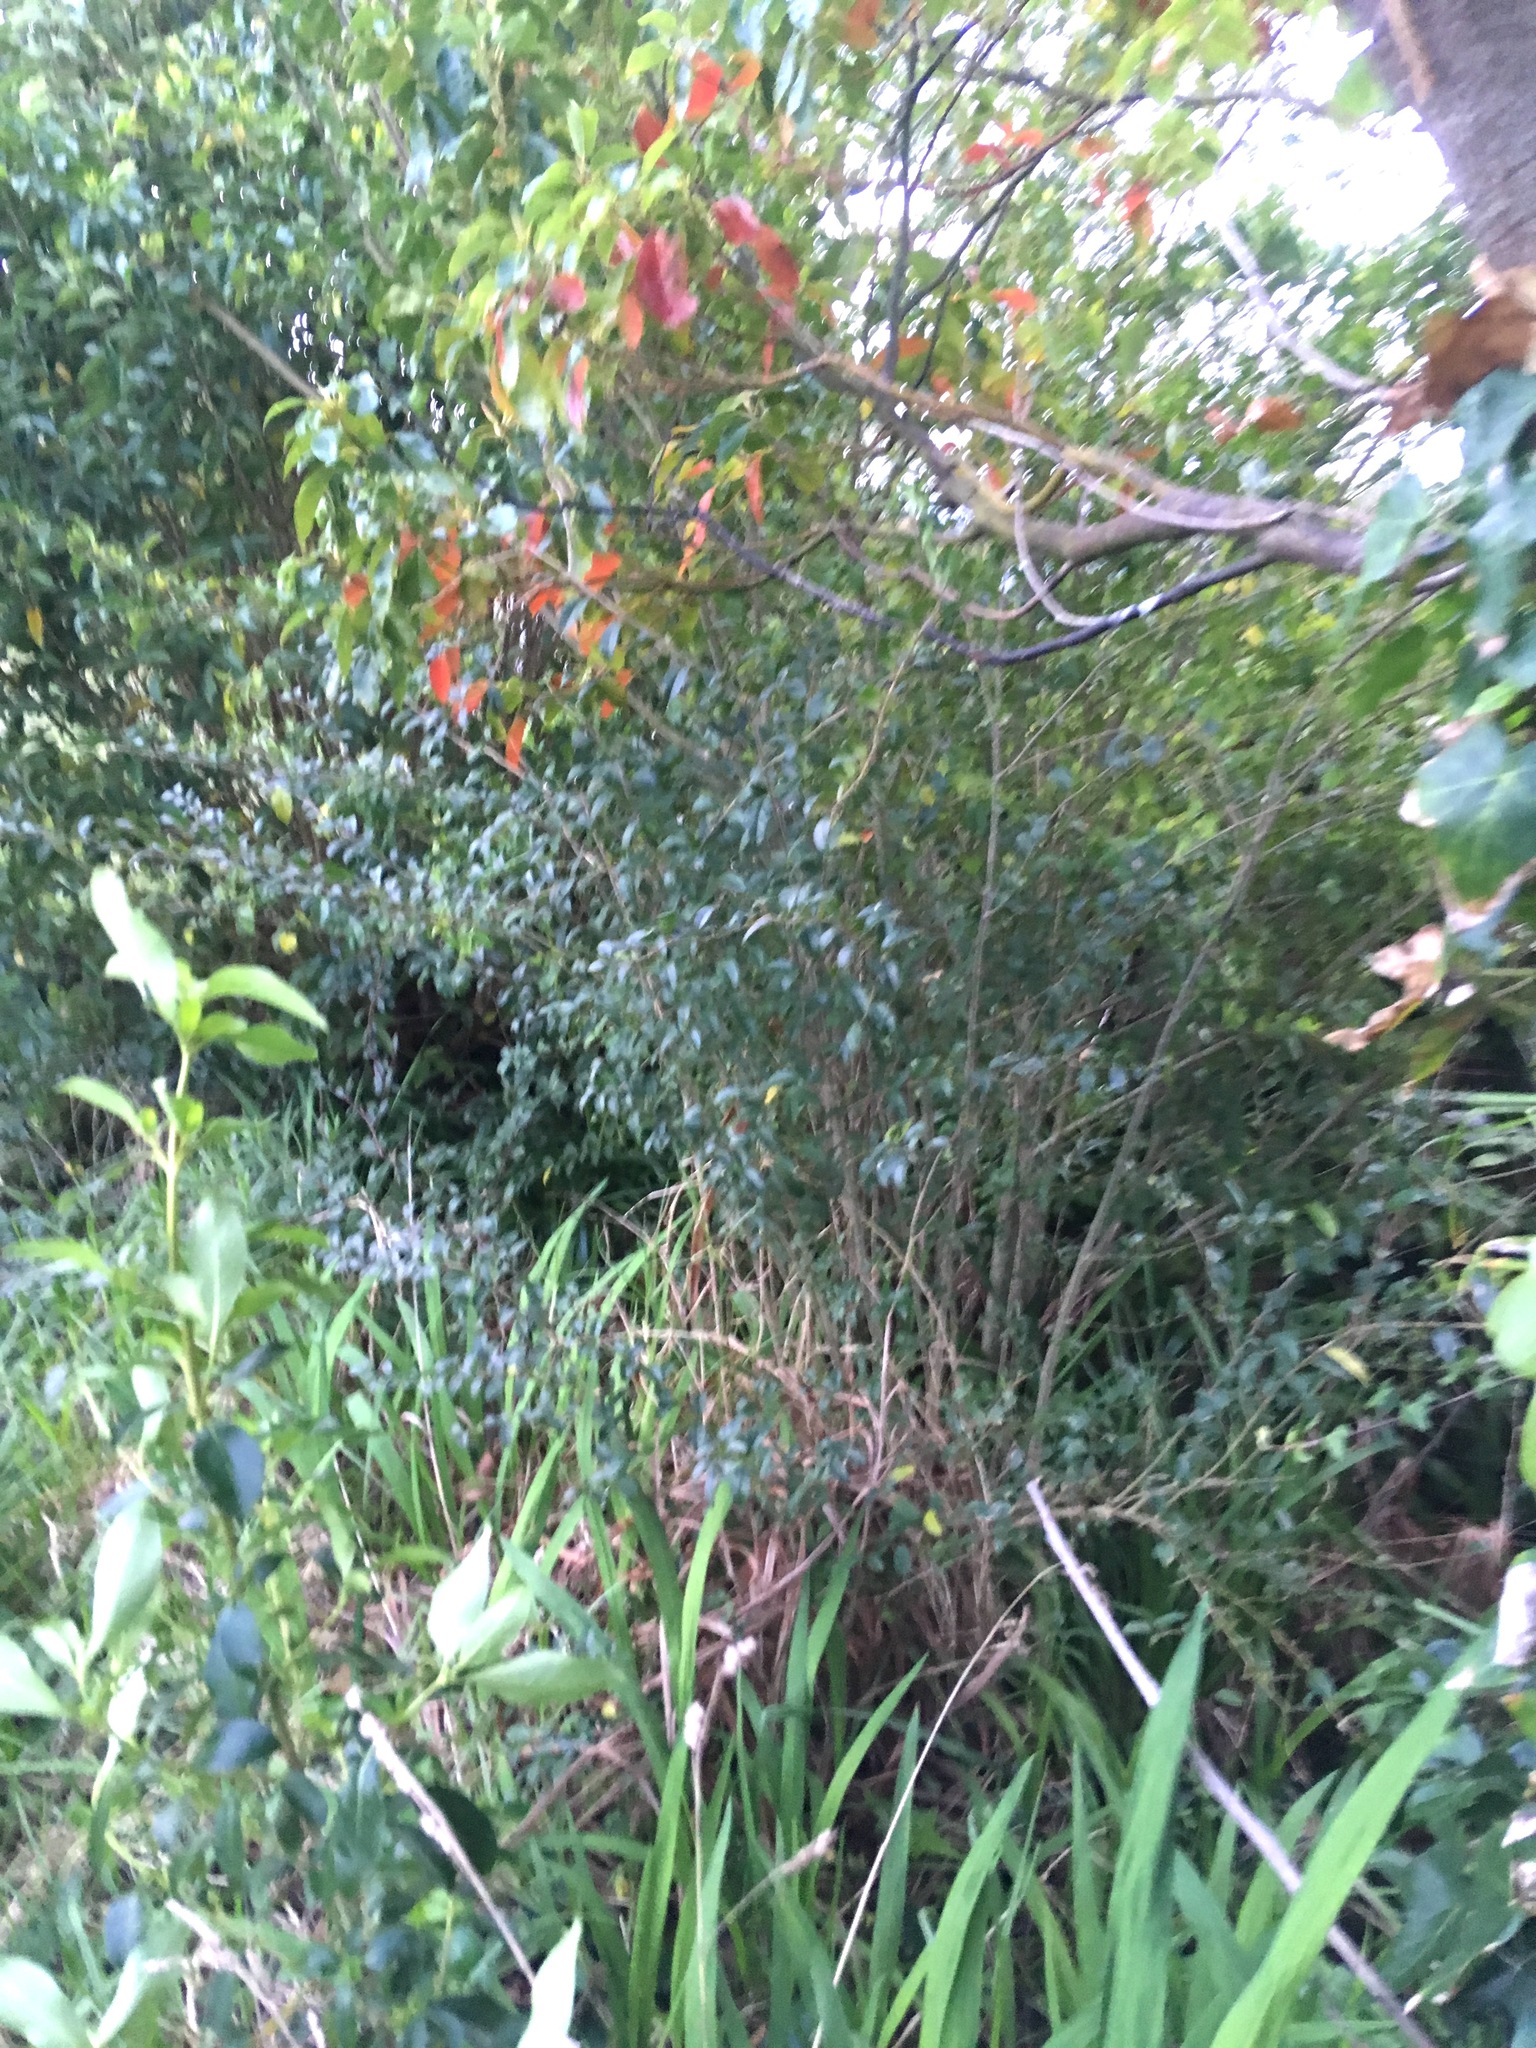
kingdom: Plantae
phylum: Tracheophyta
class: Magnoliopsida
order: Lamiales
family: Oleaceae
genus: Ligustrum
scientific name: Ligustrum sinense
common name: Chinese privet
